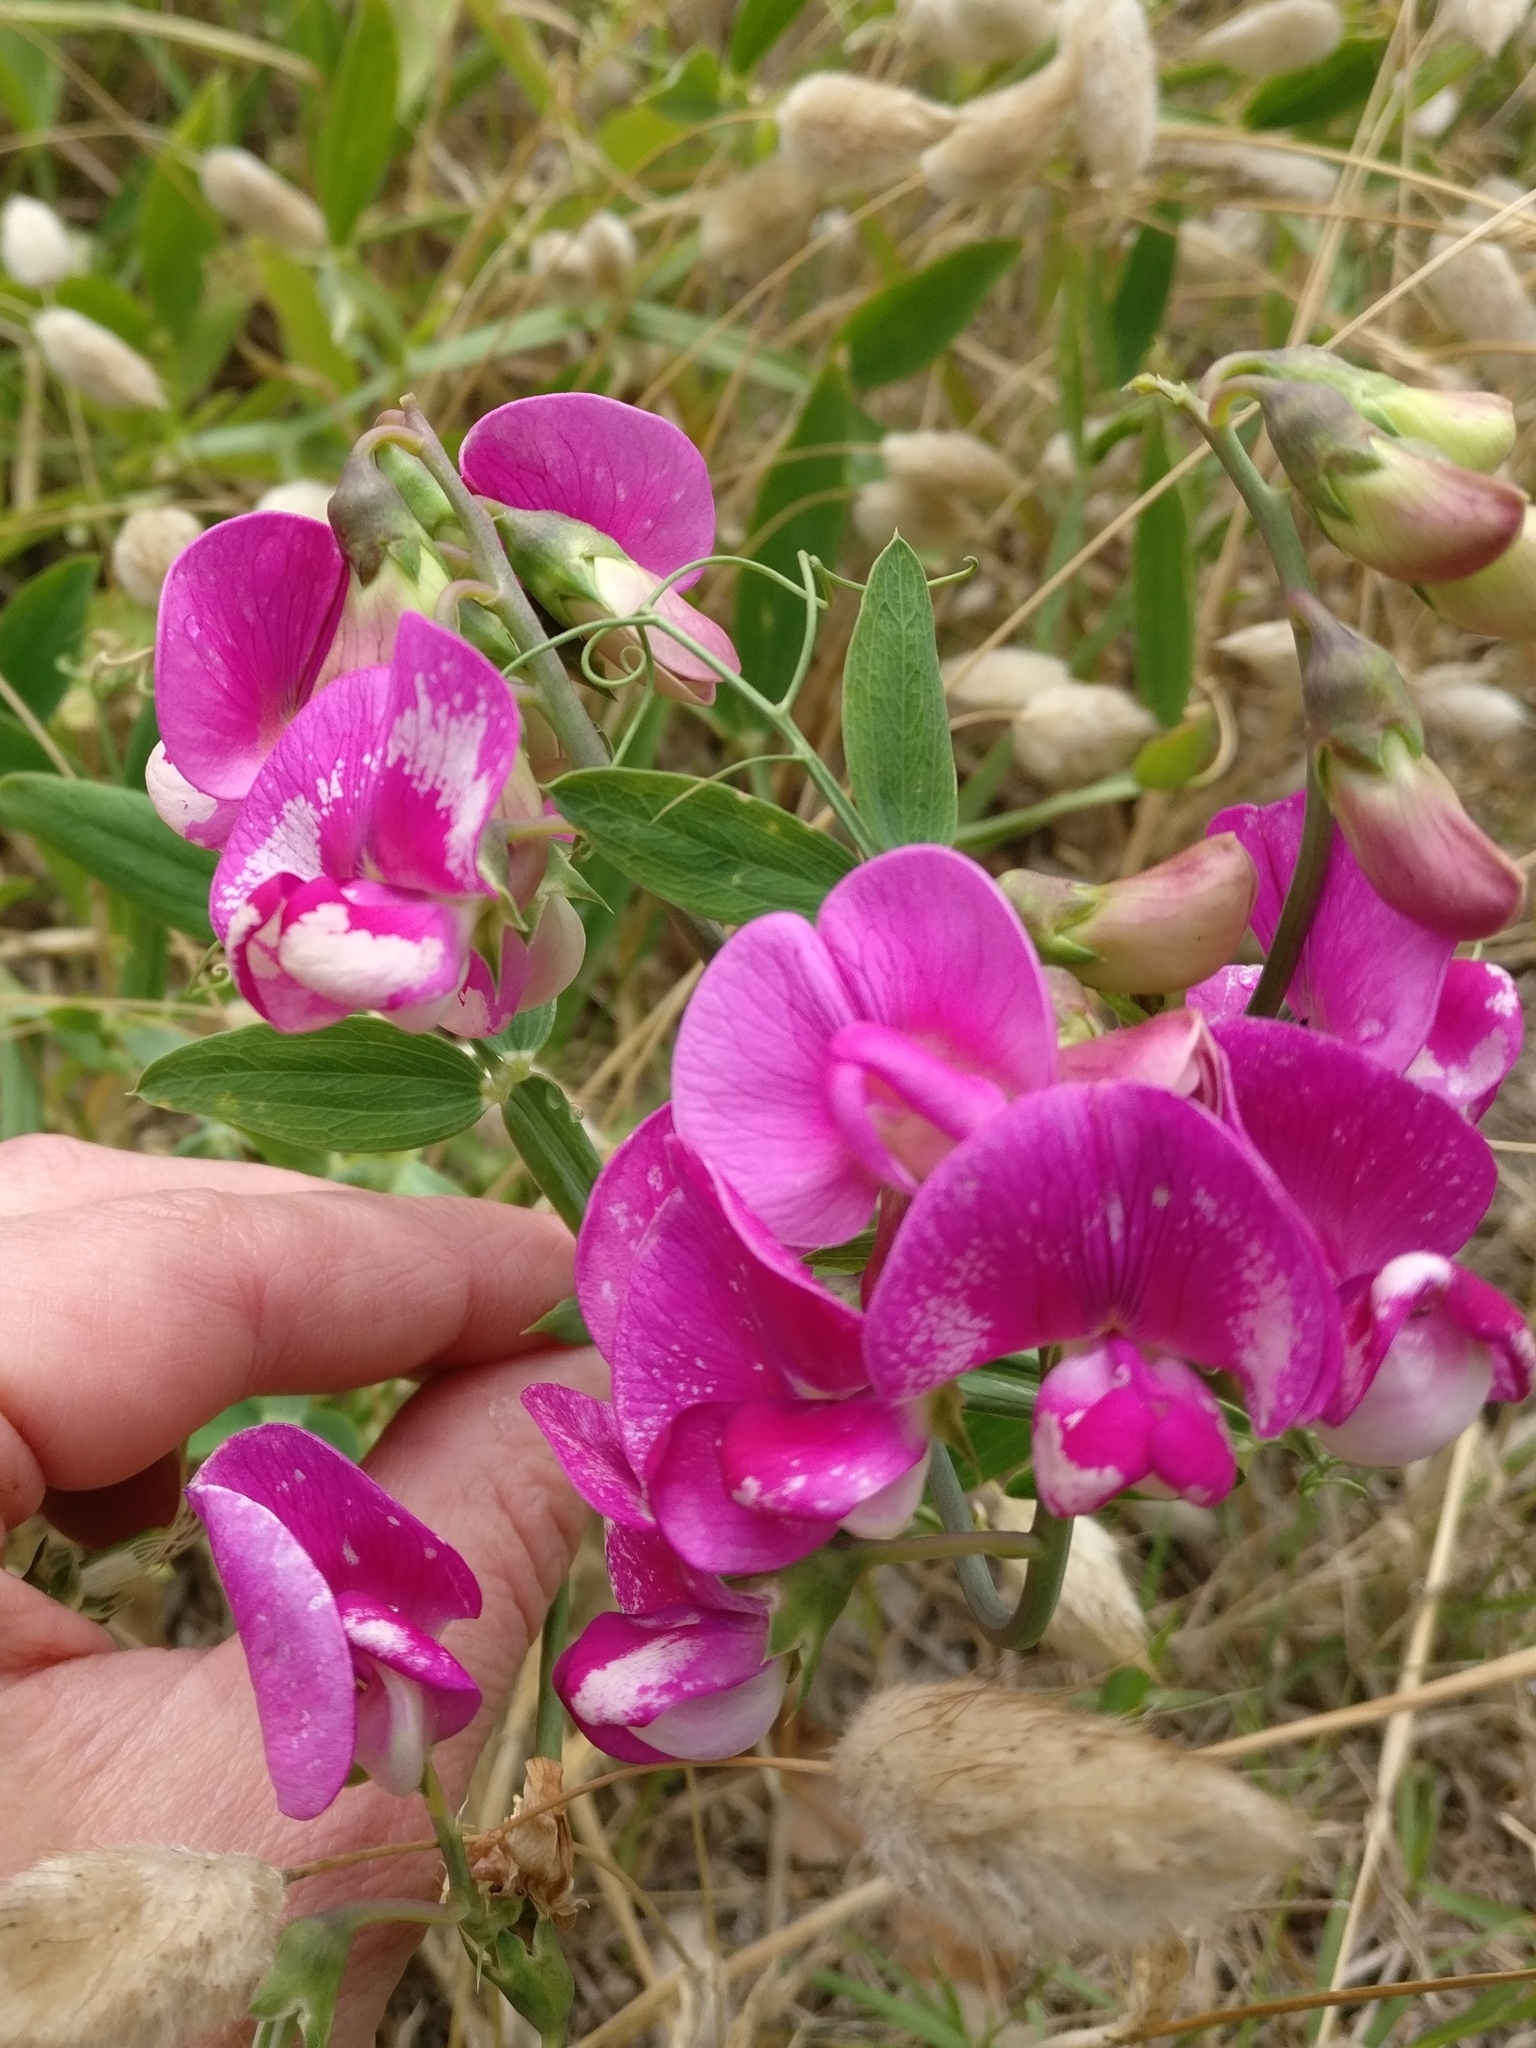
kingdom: Plantae
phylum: Tracheophyta
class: Magnoliopsida
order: Fabales
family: Fabaceae
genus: Lathyrus
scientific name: Lathyrus latifolius
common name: Perennial pea
